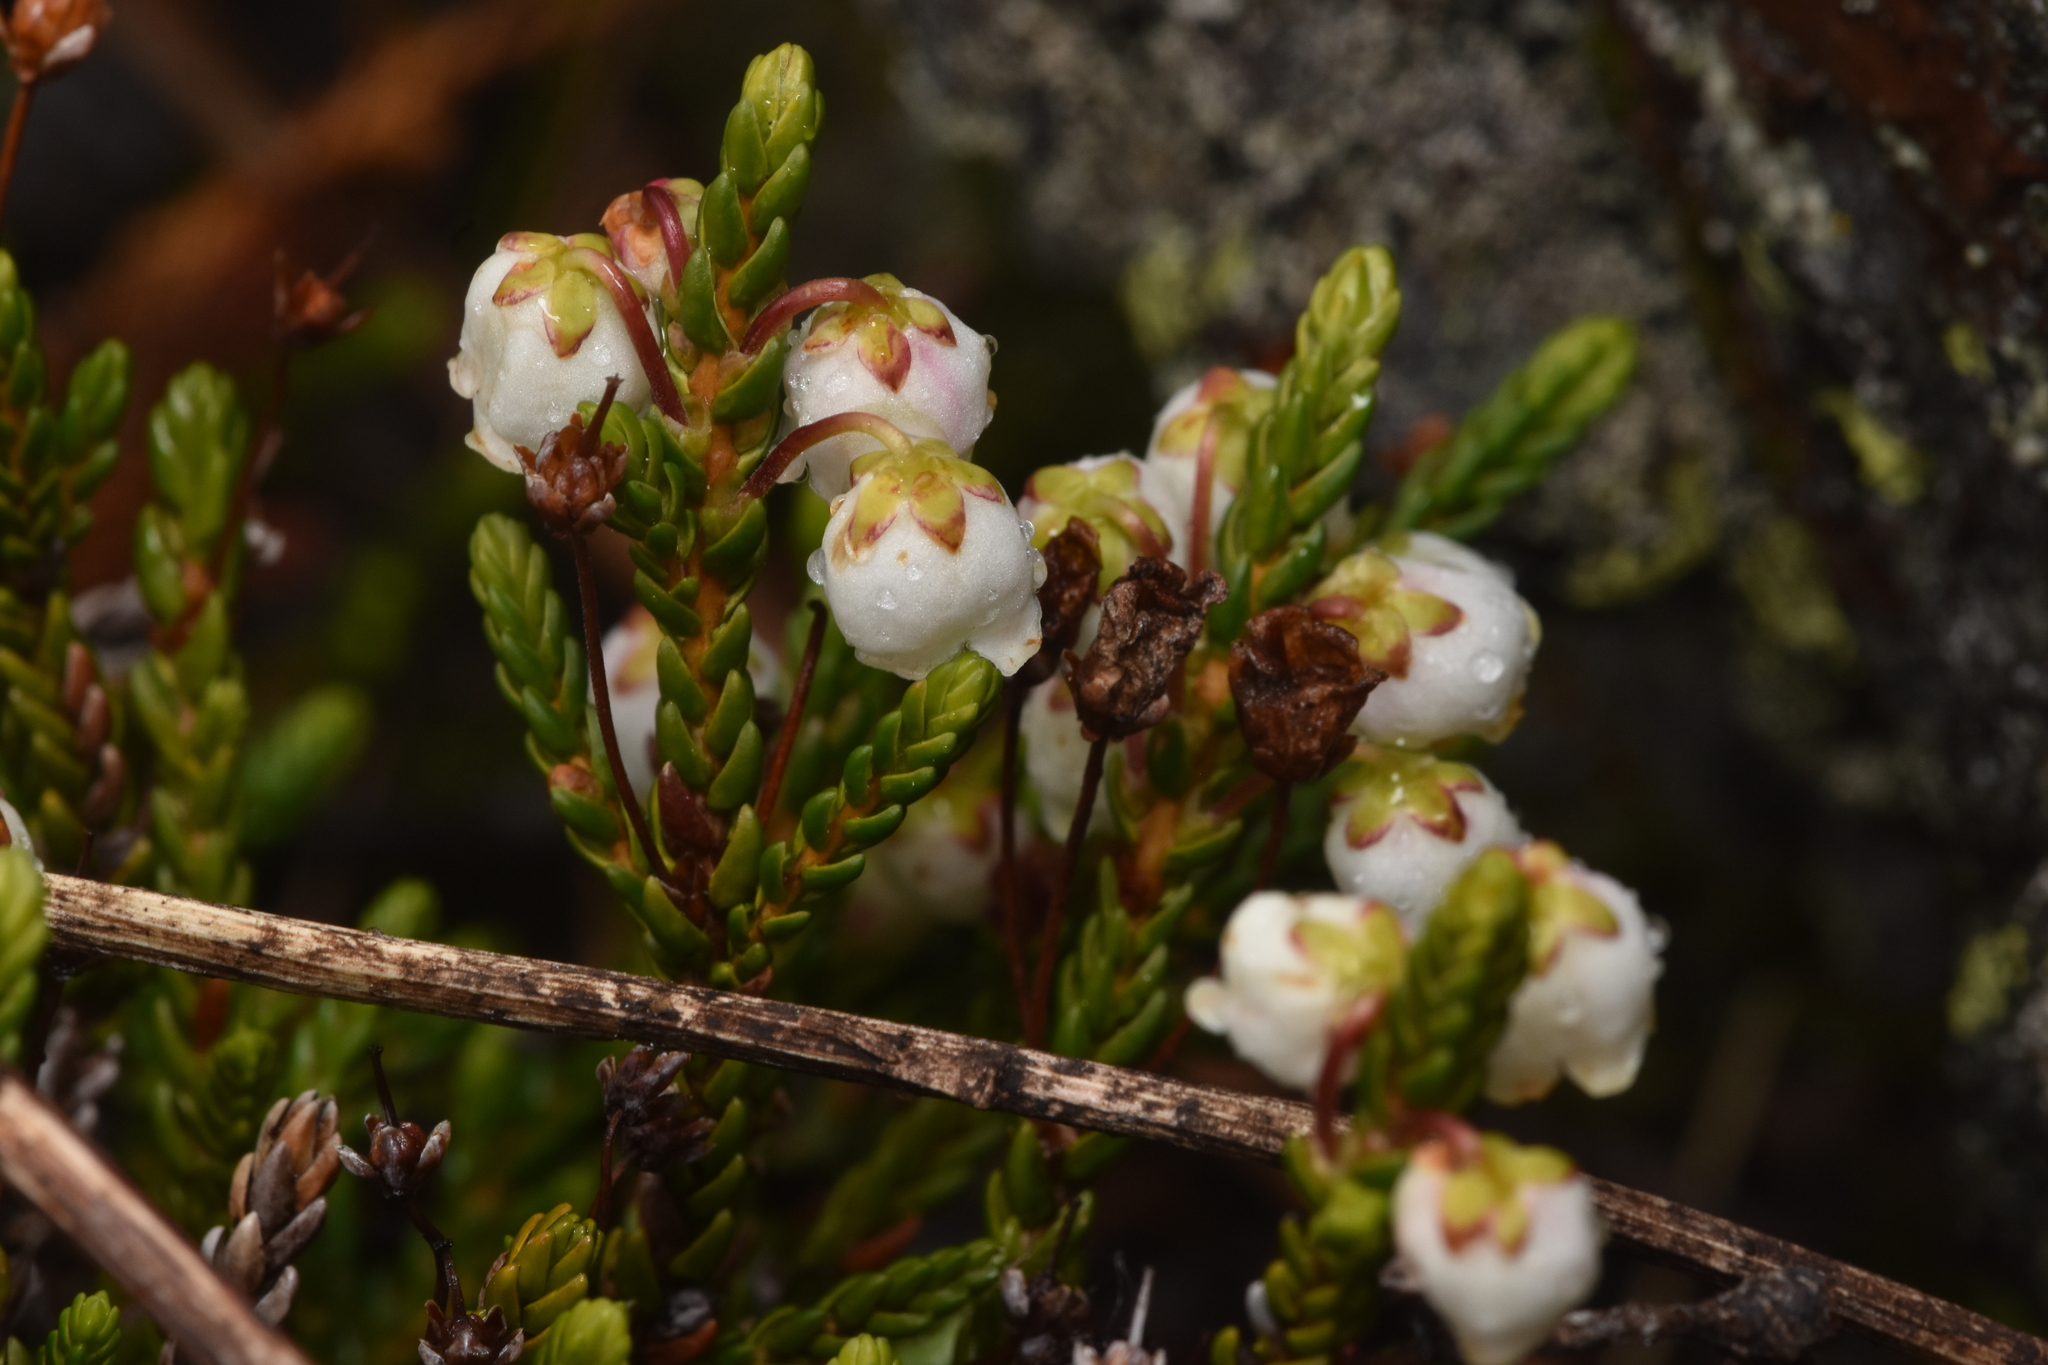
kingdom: Plantae
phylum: Tracheophyta
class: Magnoliopsida
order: Ericales
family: Ericaceae
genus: Cassiope
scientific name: Cassiope mertensiana
